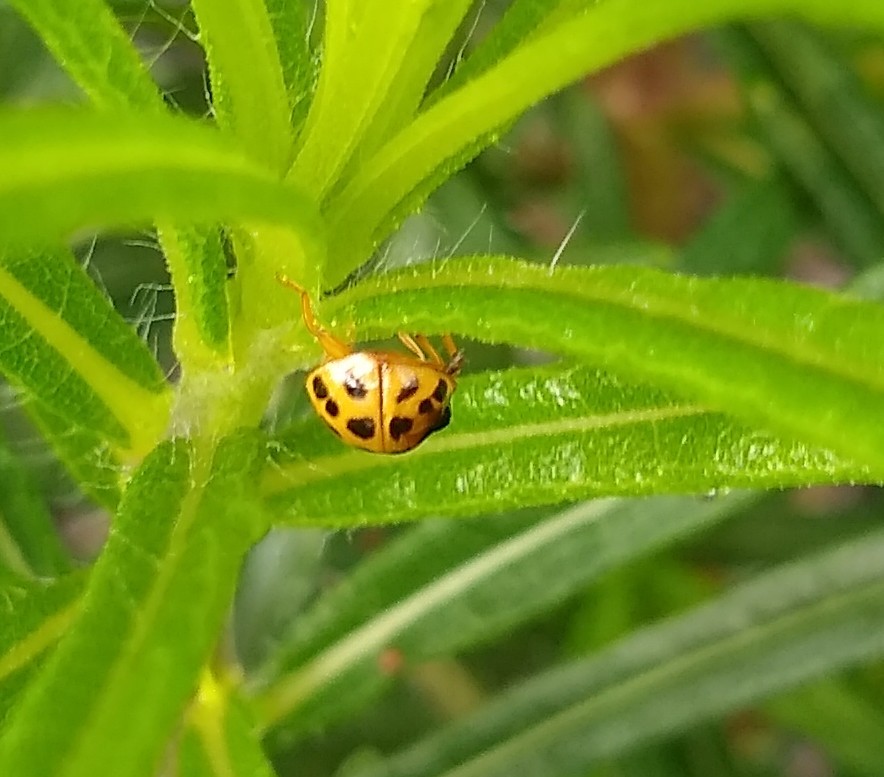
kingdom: Animalia
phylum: Arthropoda
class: Insecta
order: Coleoptera
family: Coccinellidae
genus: Harmonia
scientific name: Harmonia axyridis
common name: Harlequin ladybird
